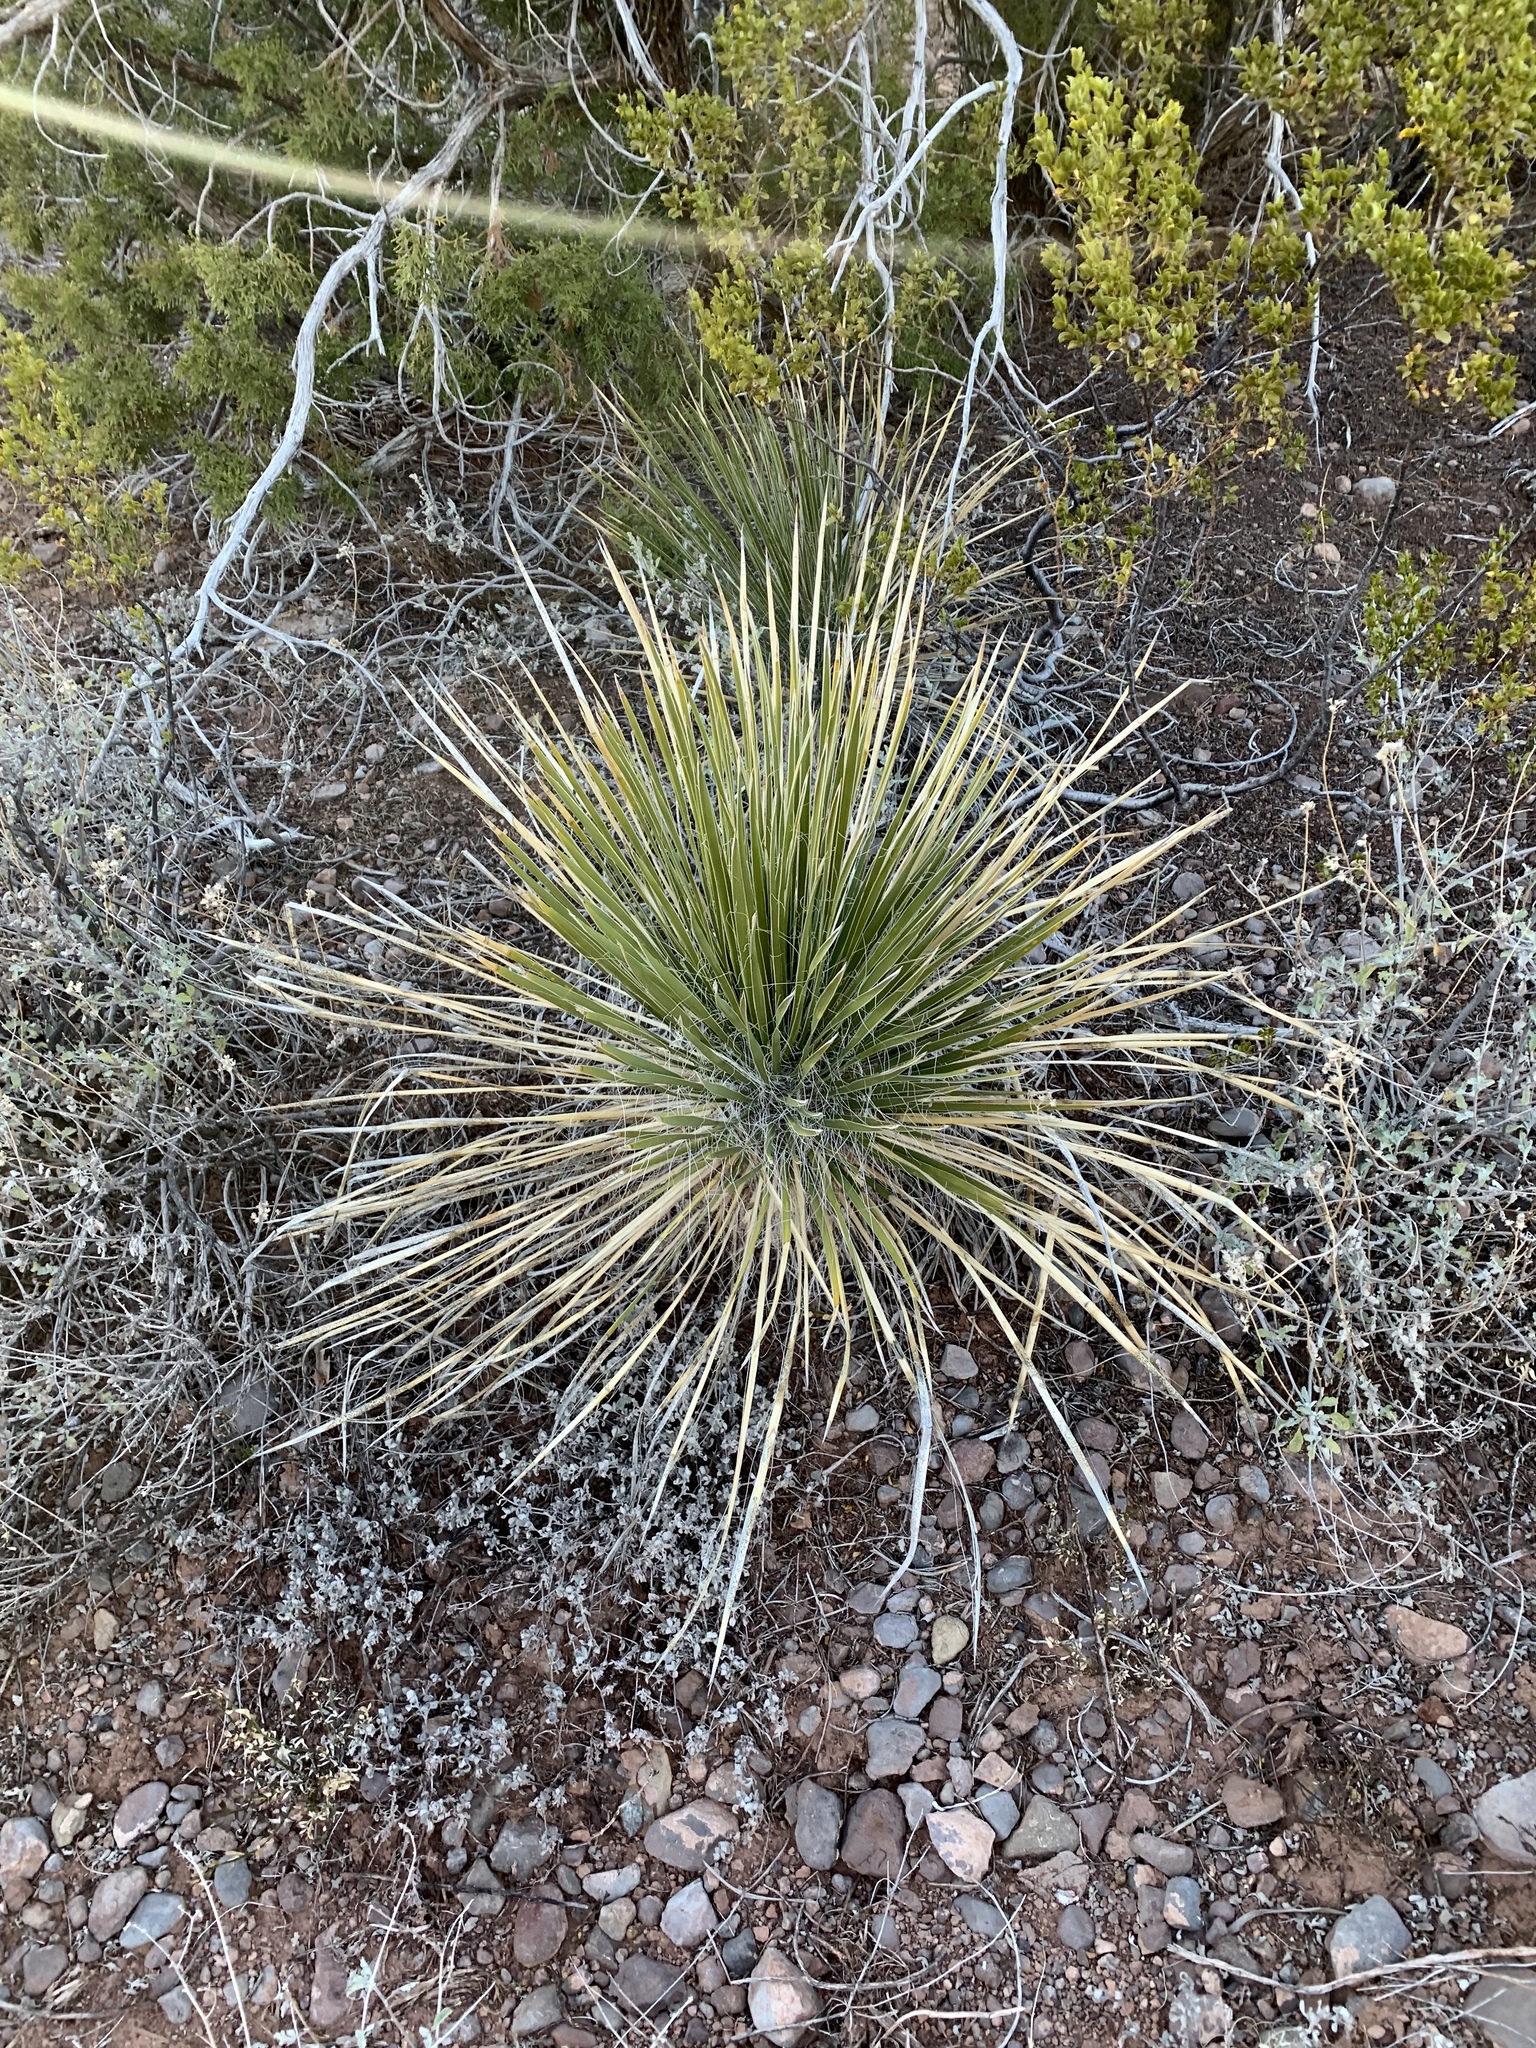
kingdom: Plantae
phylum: Tracheophyta
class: Liliopsida
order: Asparagales
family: Asparagaceae
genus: Yucca
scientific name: Yucca elata
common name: Palmella
